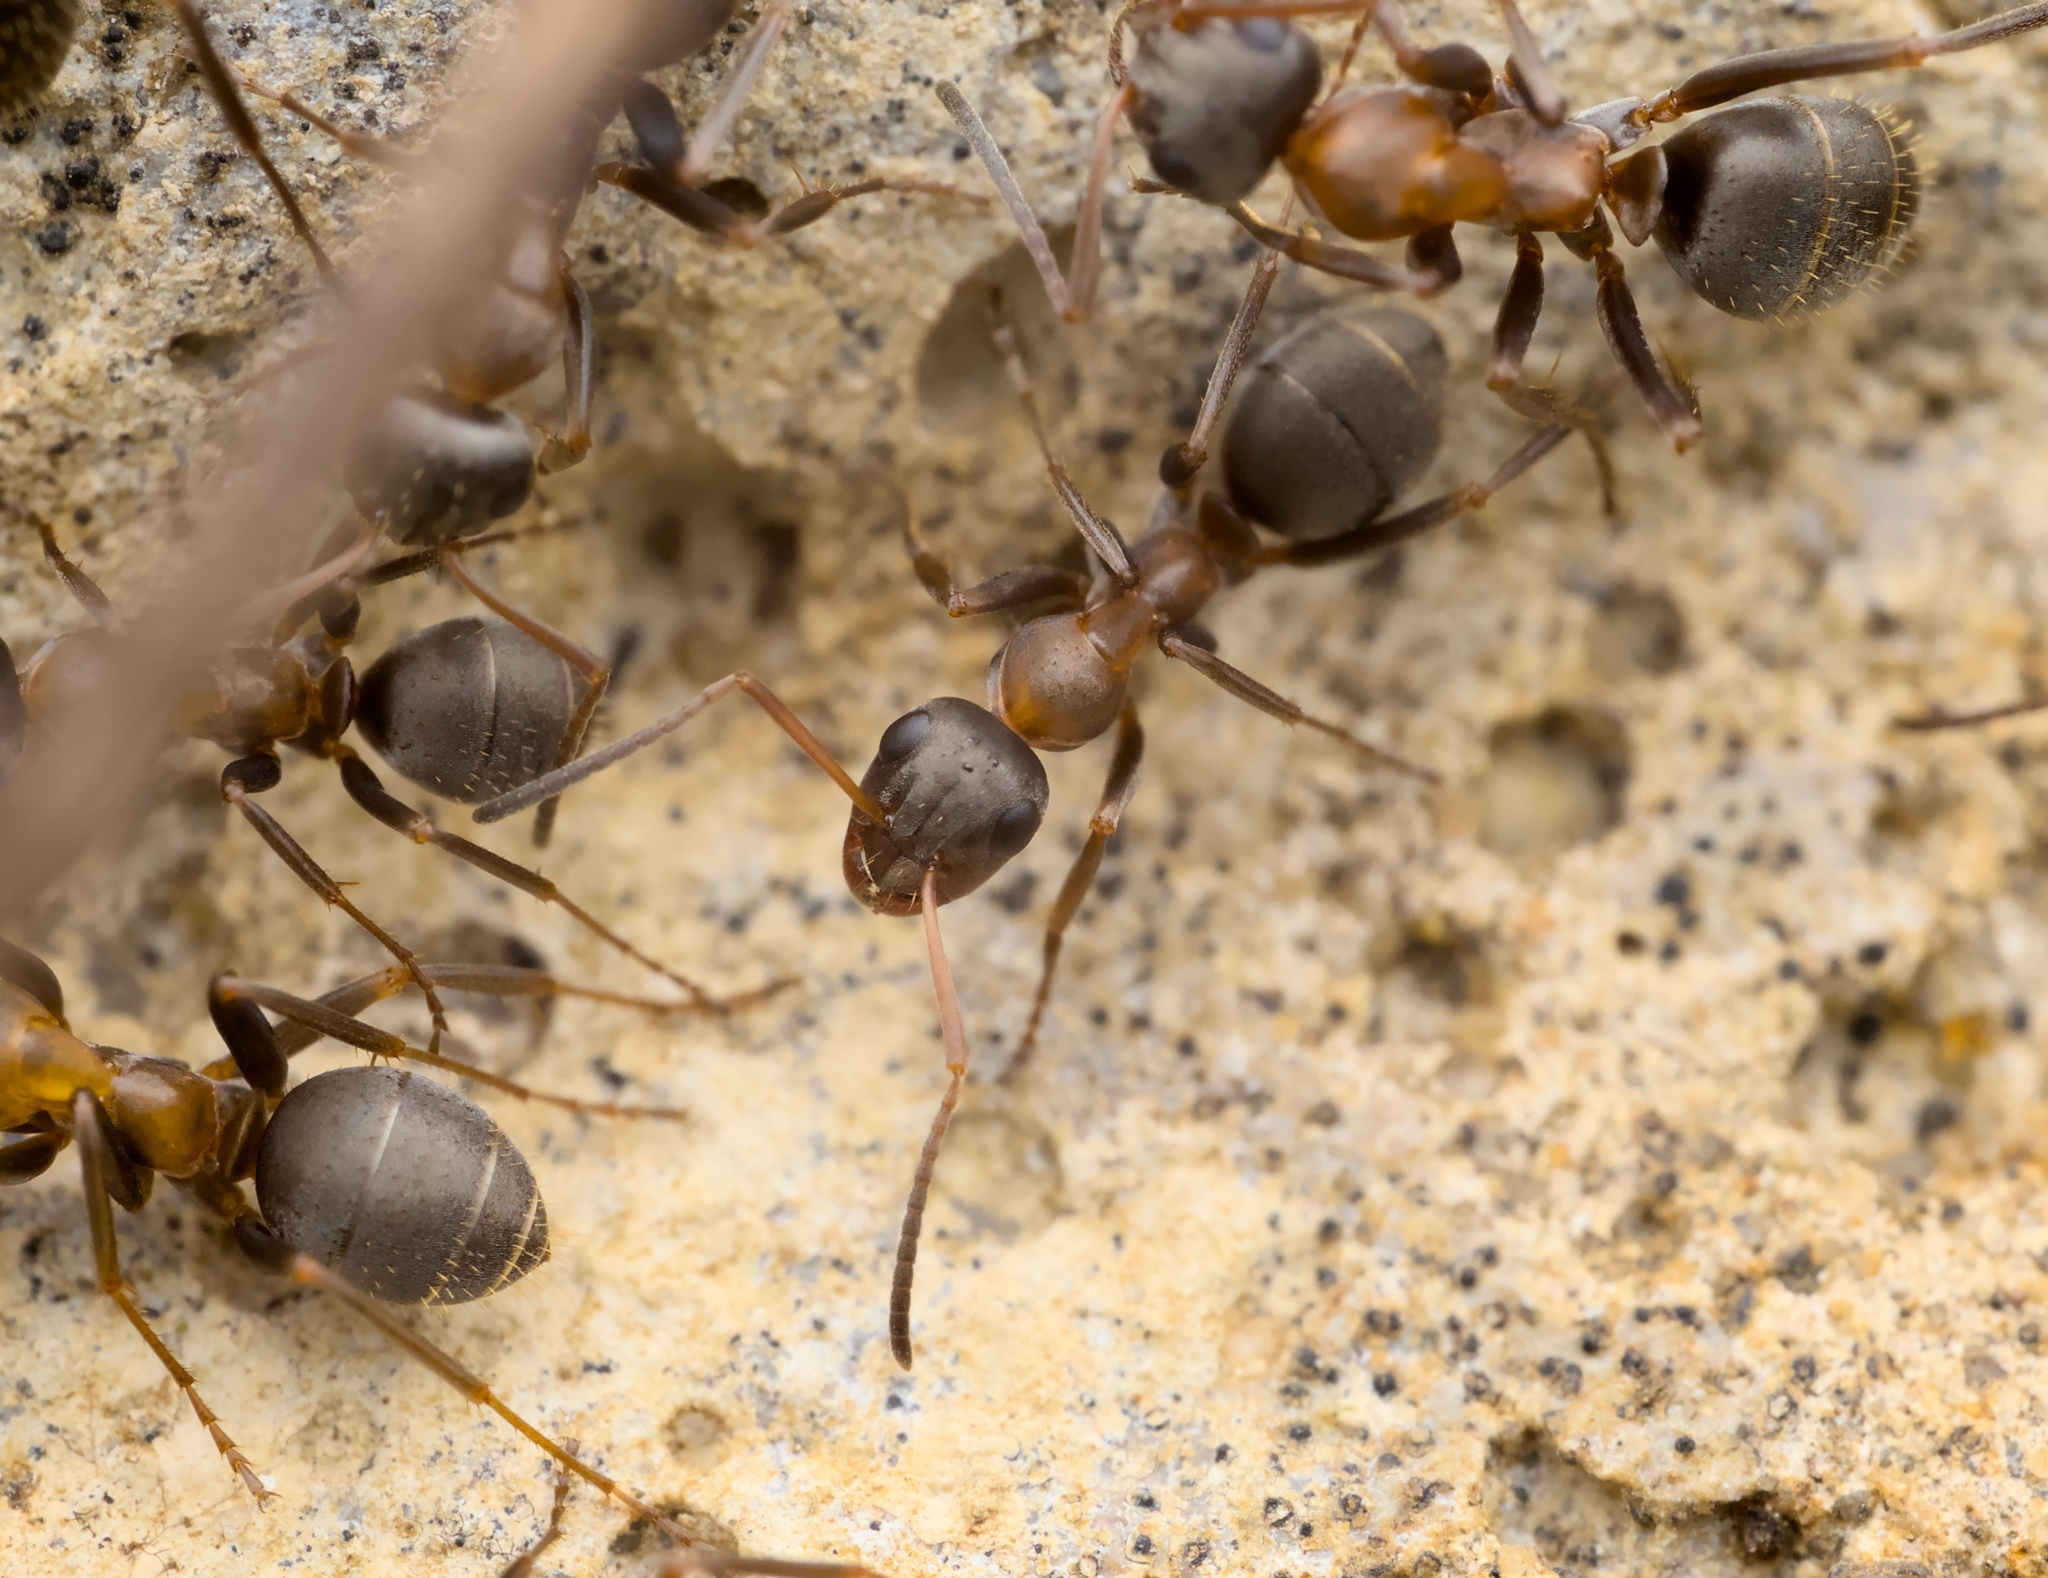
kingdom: Animalia
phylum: Arthropoda
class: Insecta
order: Hymenoptera
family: Formicidae
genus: Formica
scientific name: Formica rufibarbis
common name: Red barbed ant
